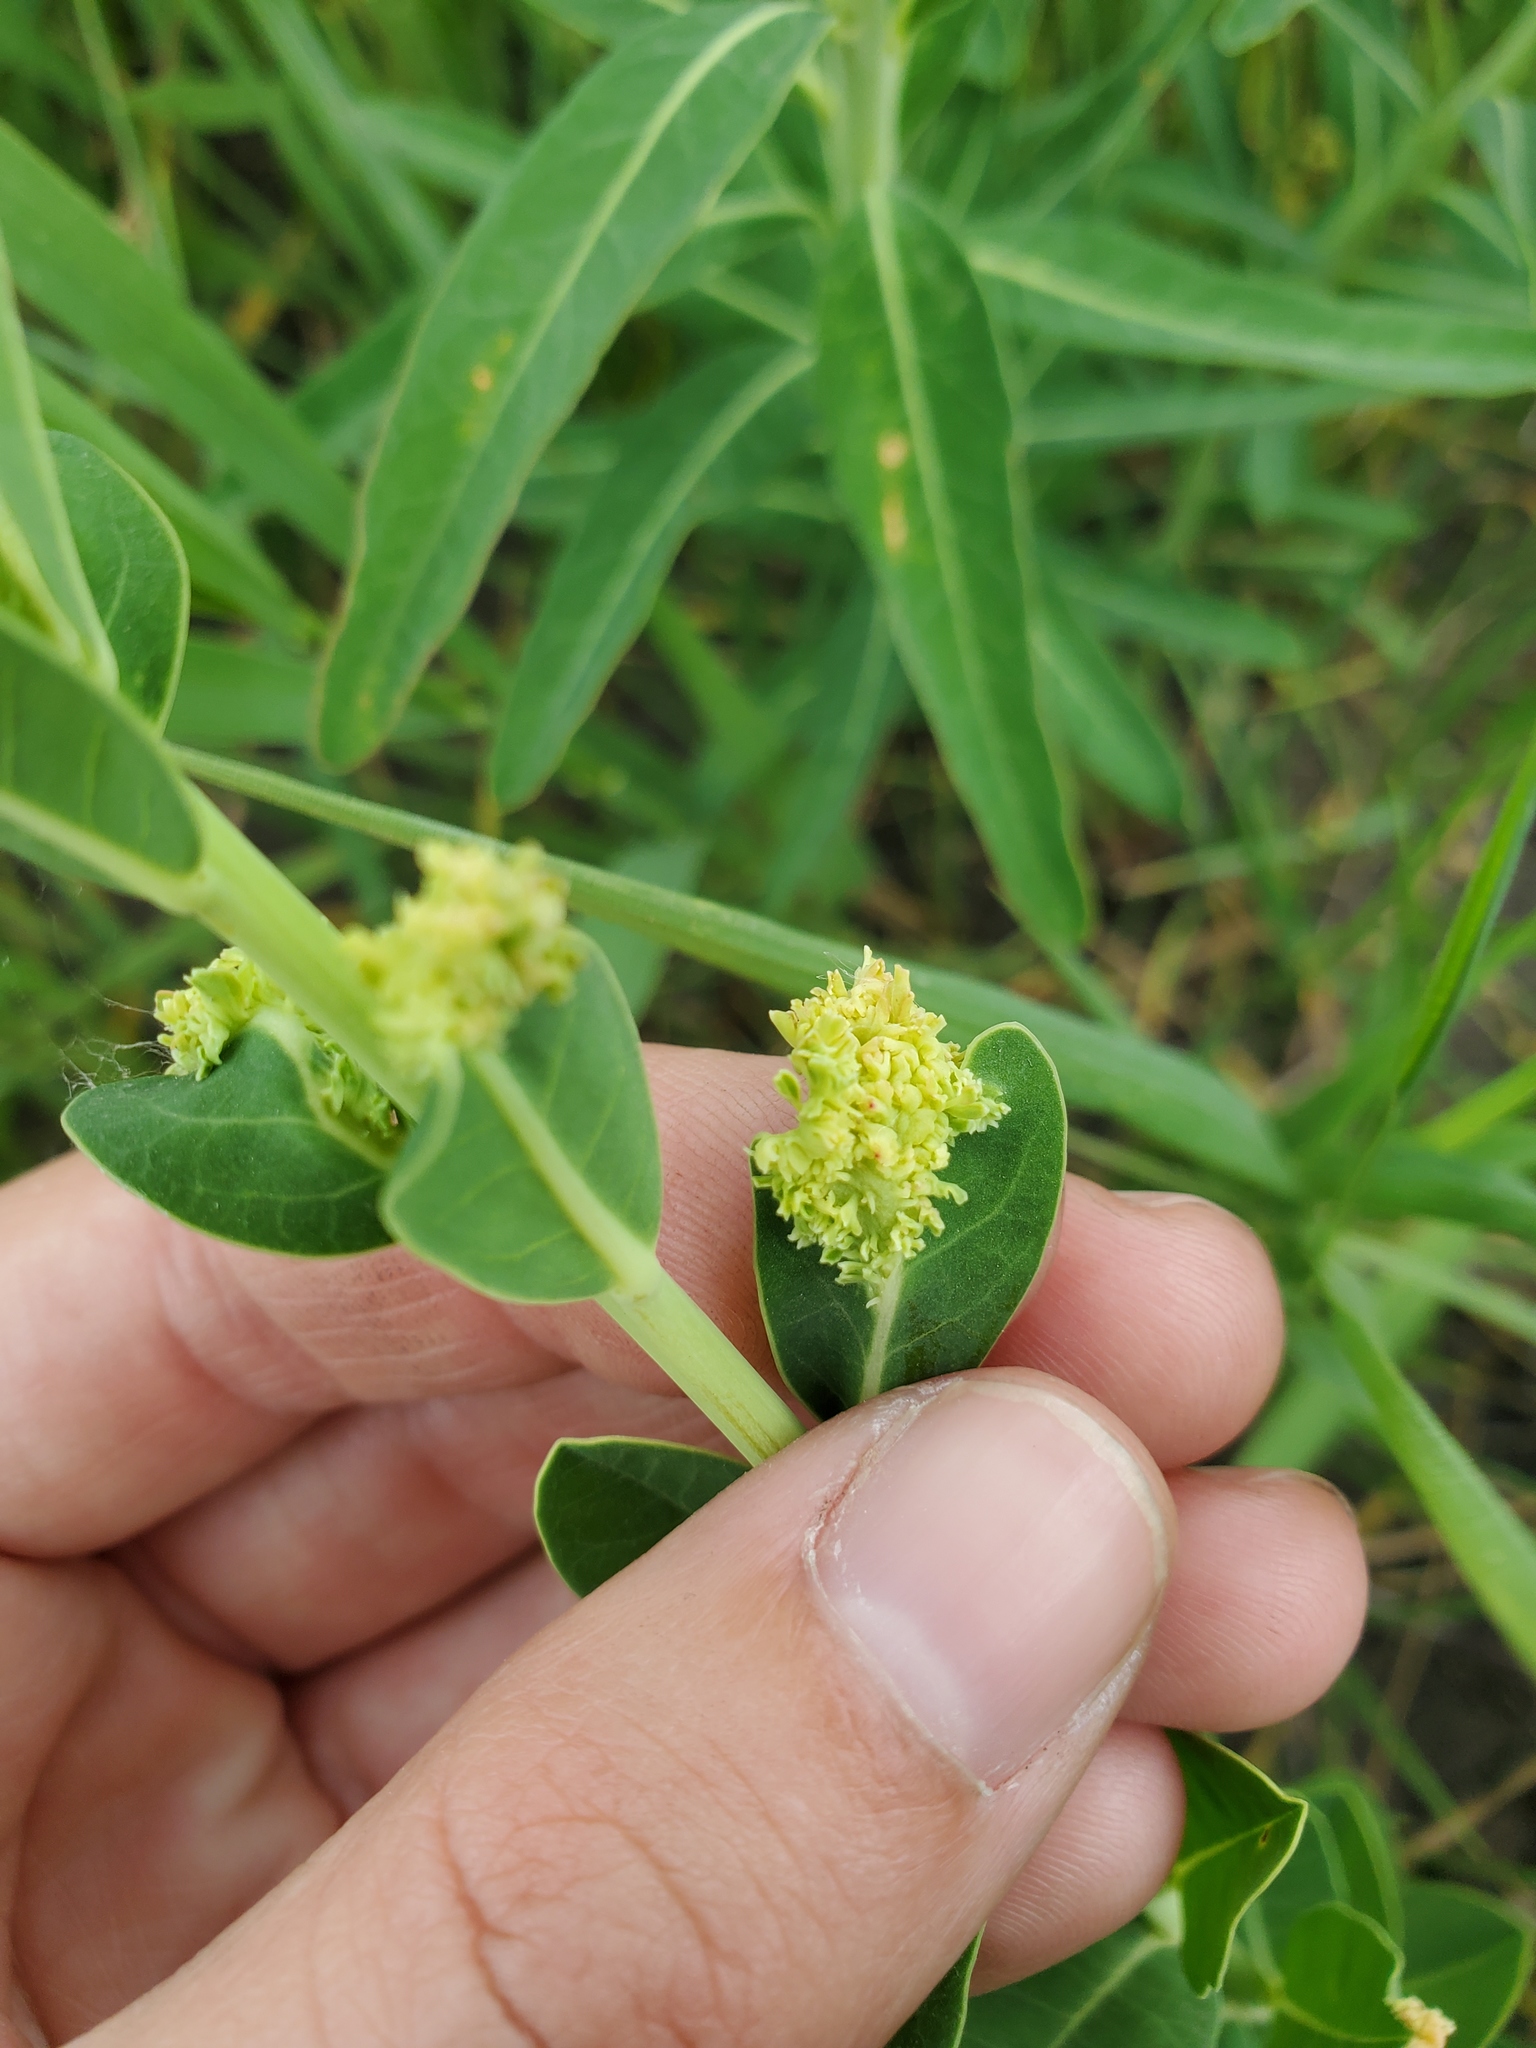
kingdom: Animalia
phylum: Arthropoda
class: Arachnida
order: Trombidiformes
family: Eriophyidae
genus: Aculops
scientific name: Aculops
